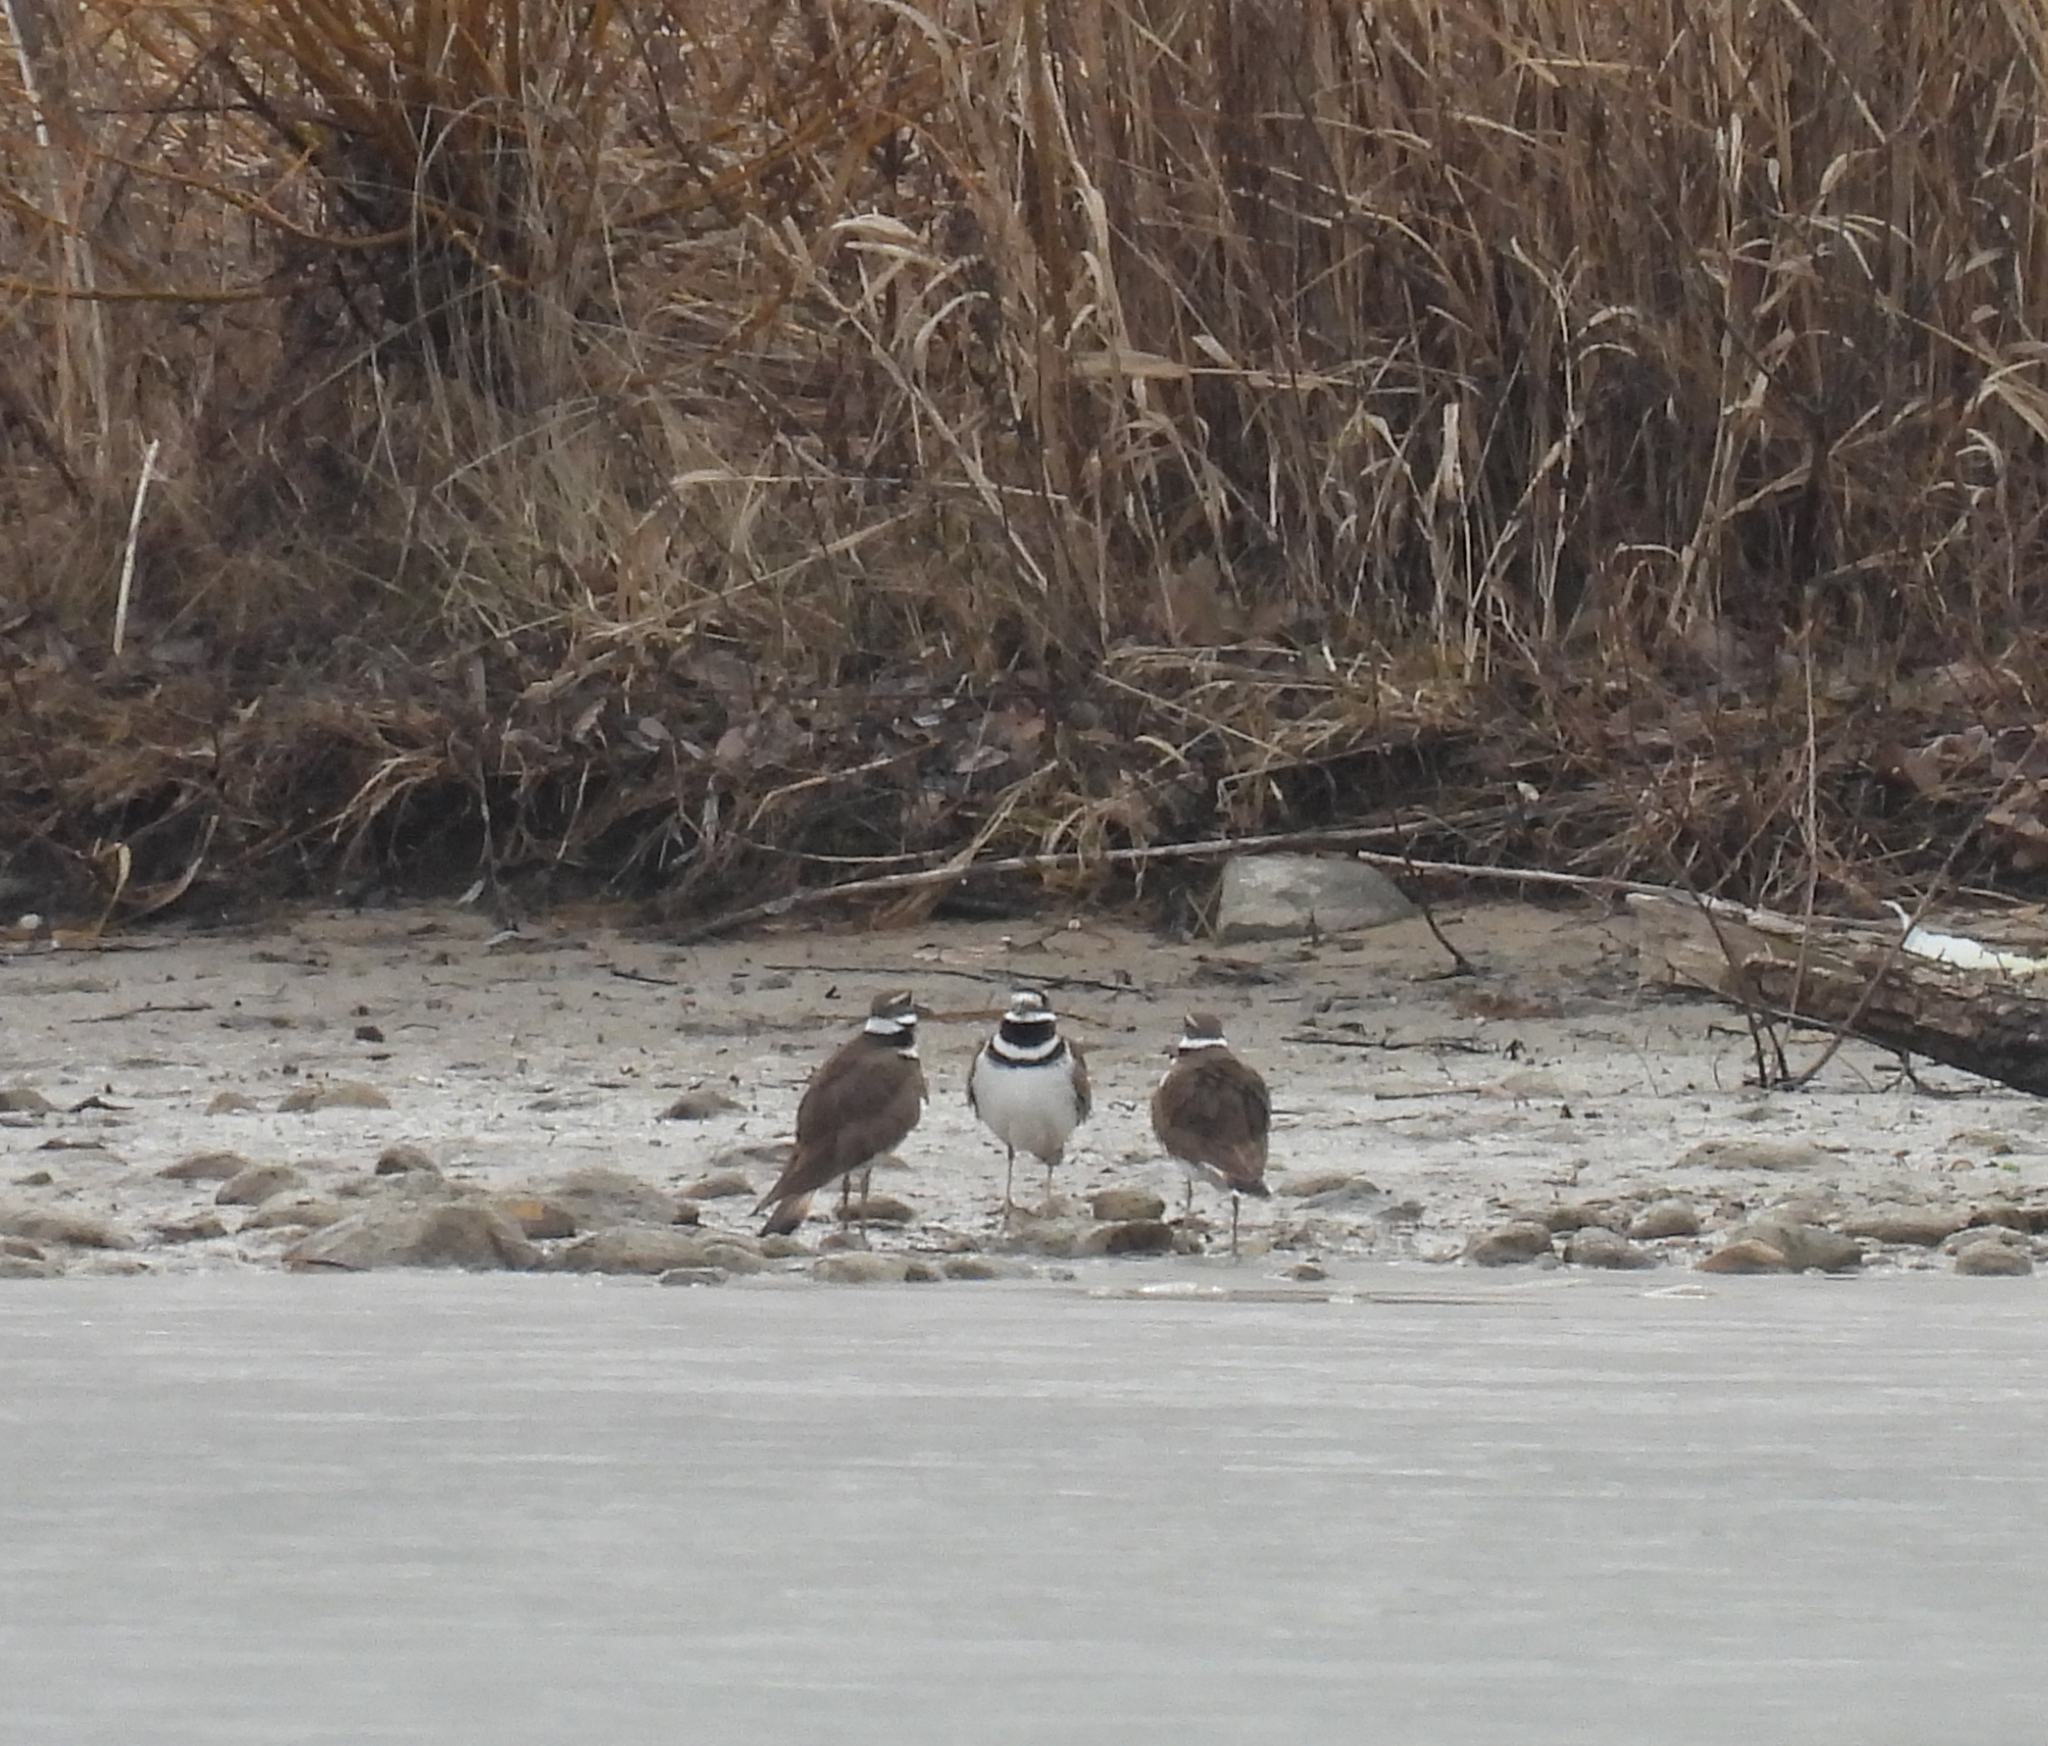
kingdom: Animalia
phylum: Chordata
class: Aves
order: Charadriiformes
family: Charadriidae
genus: Charadrius
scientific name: Charadrius vociferus
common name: Killdeer
